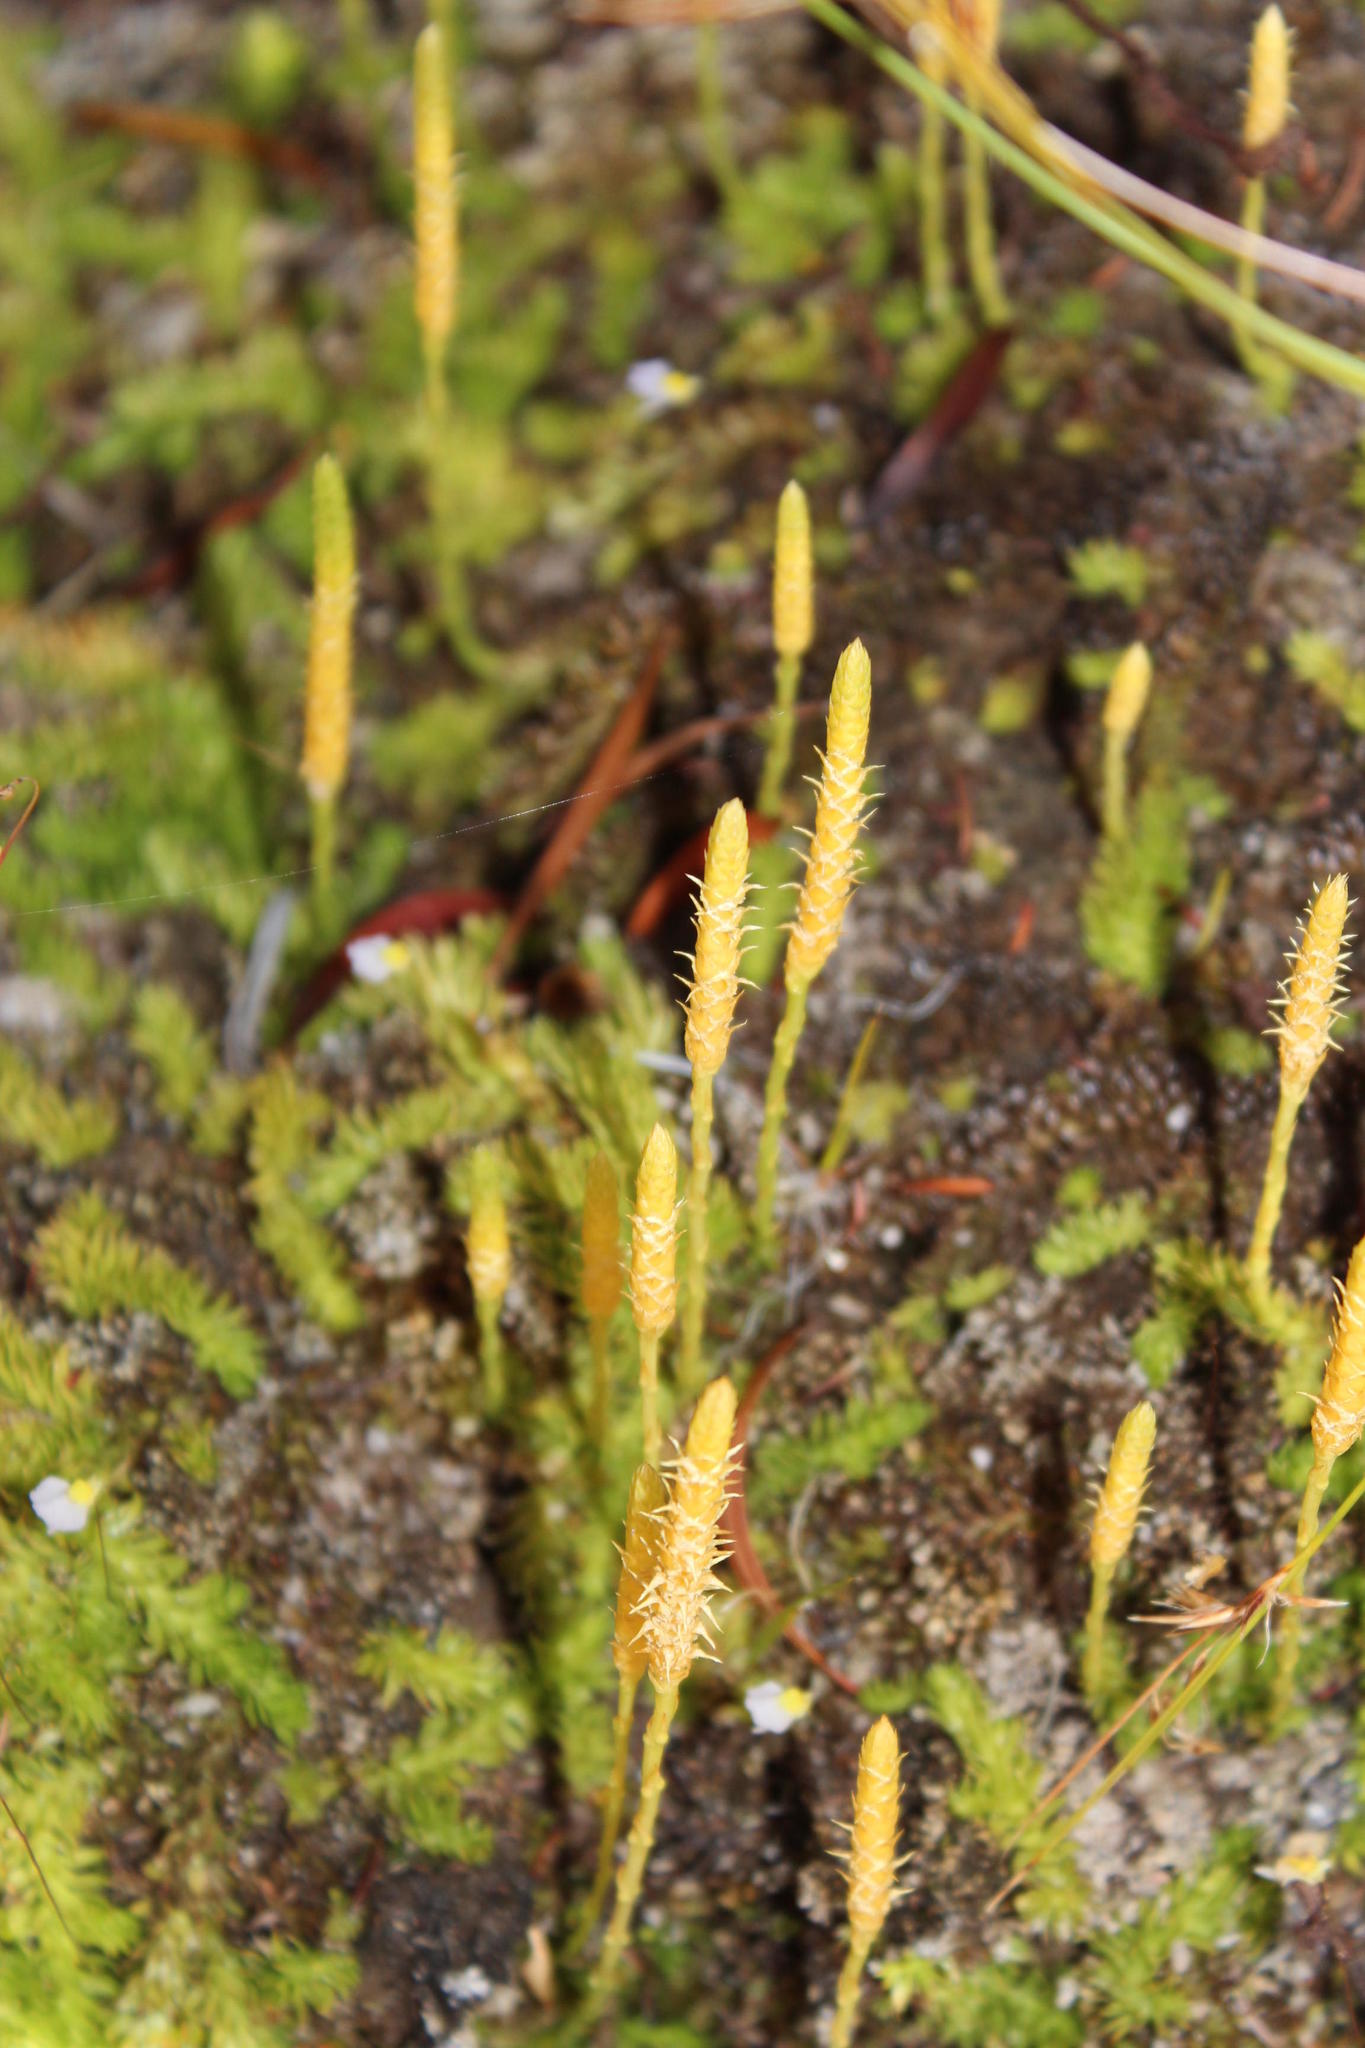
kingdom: Plantae
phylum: Tracheophyta
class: Lycopodiopsida
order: Lycopodiales
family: Lycopodiaceae
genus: Pseudolycopodiella
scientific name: Pseudolycopodiella caroliniana
